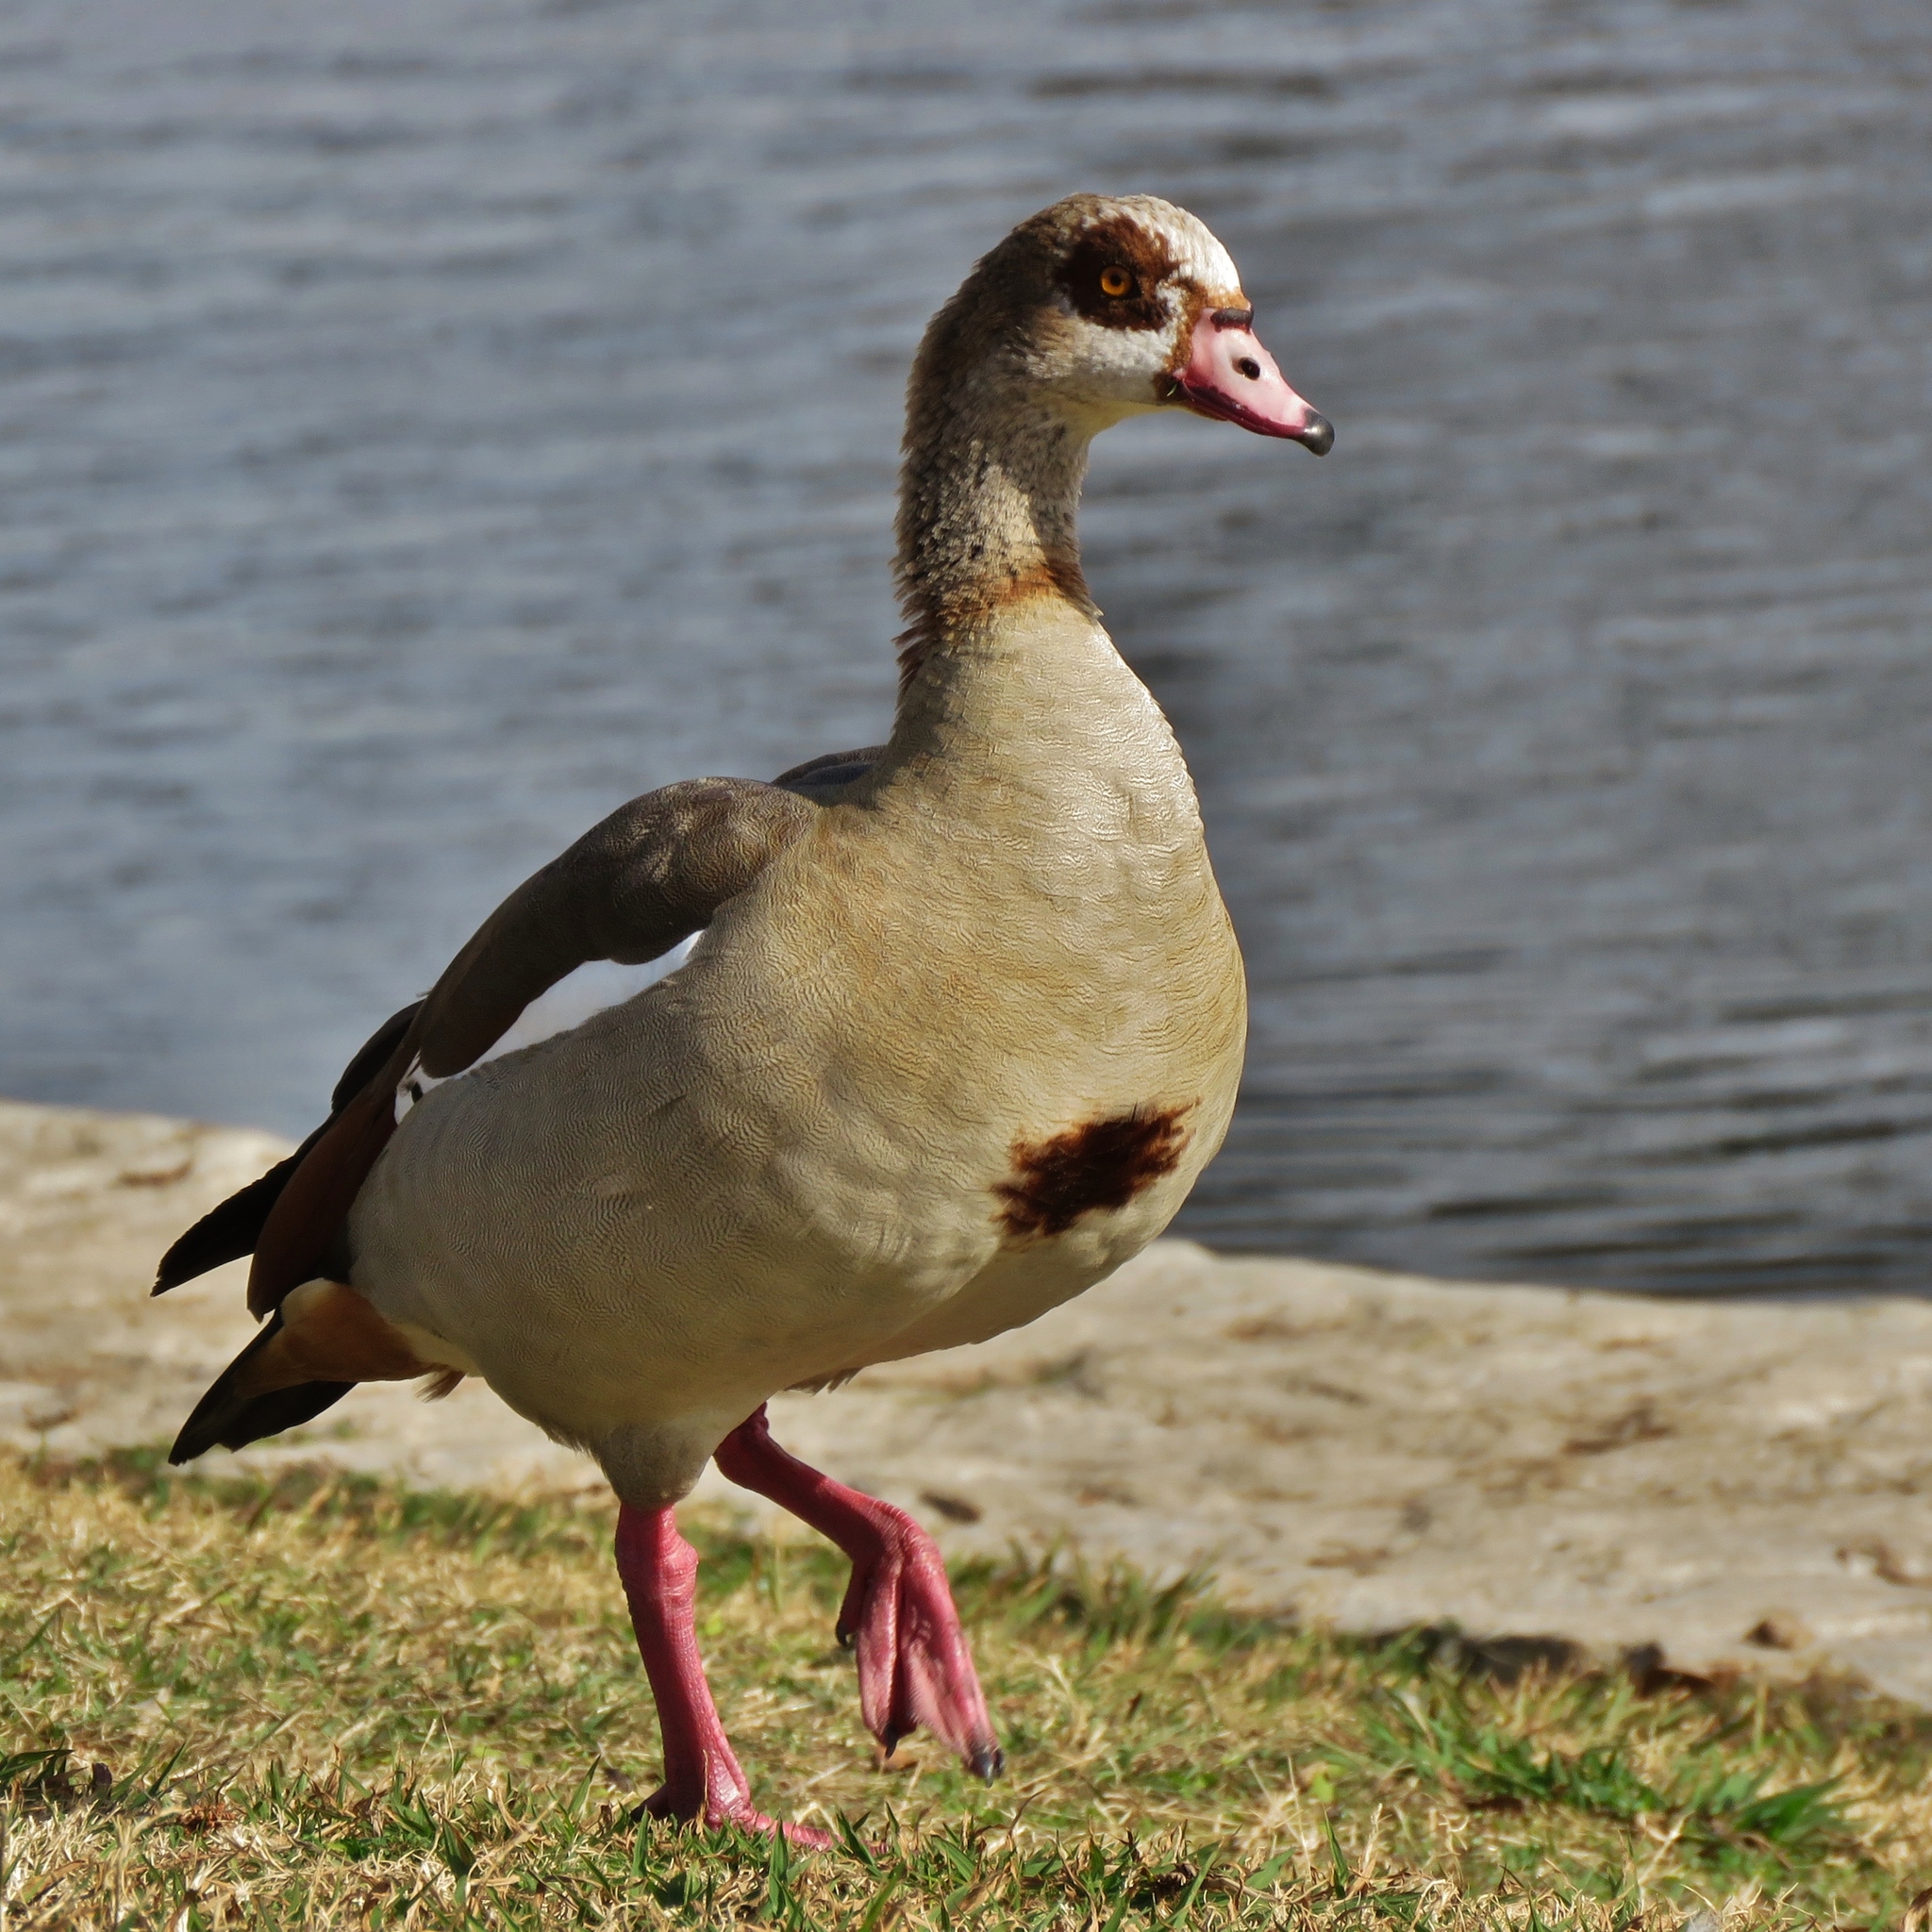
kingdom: Animalia
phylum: Chordata
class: Aves
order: Anseriformes
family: Anatidae
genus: Alopochen
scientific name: Alopochen aegyptiaca
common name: Egyptian goose
